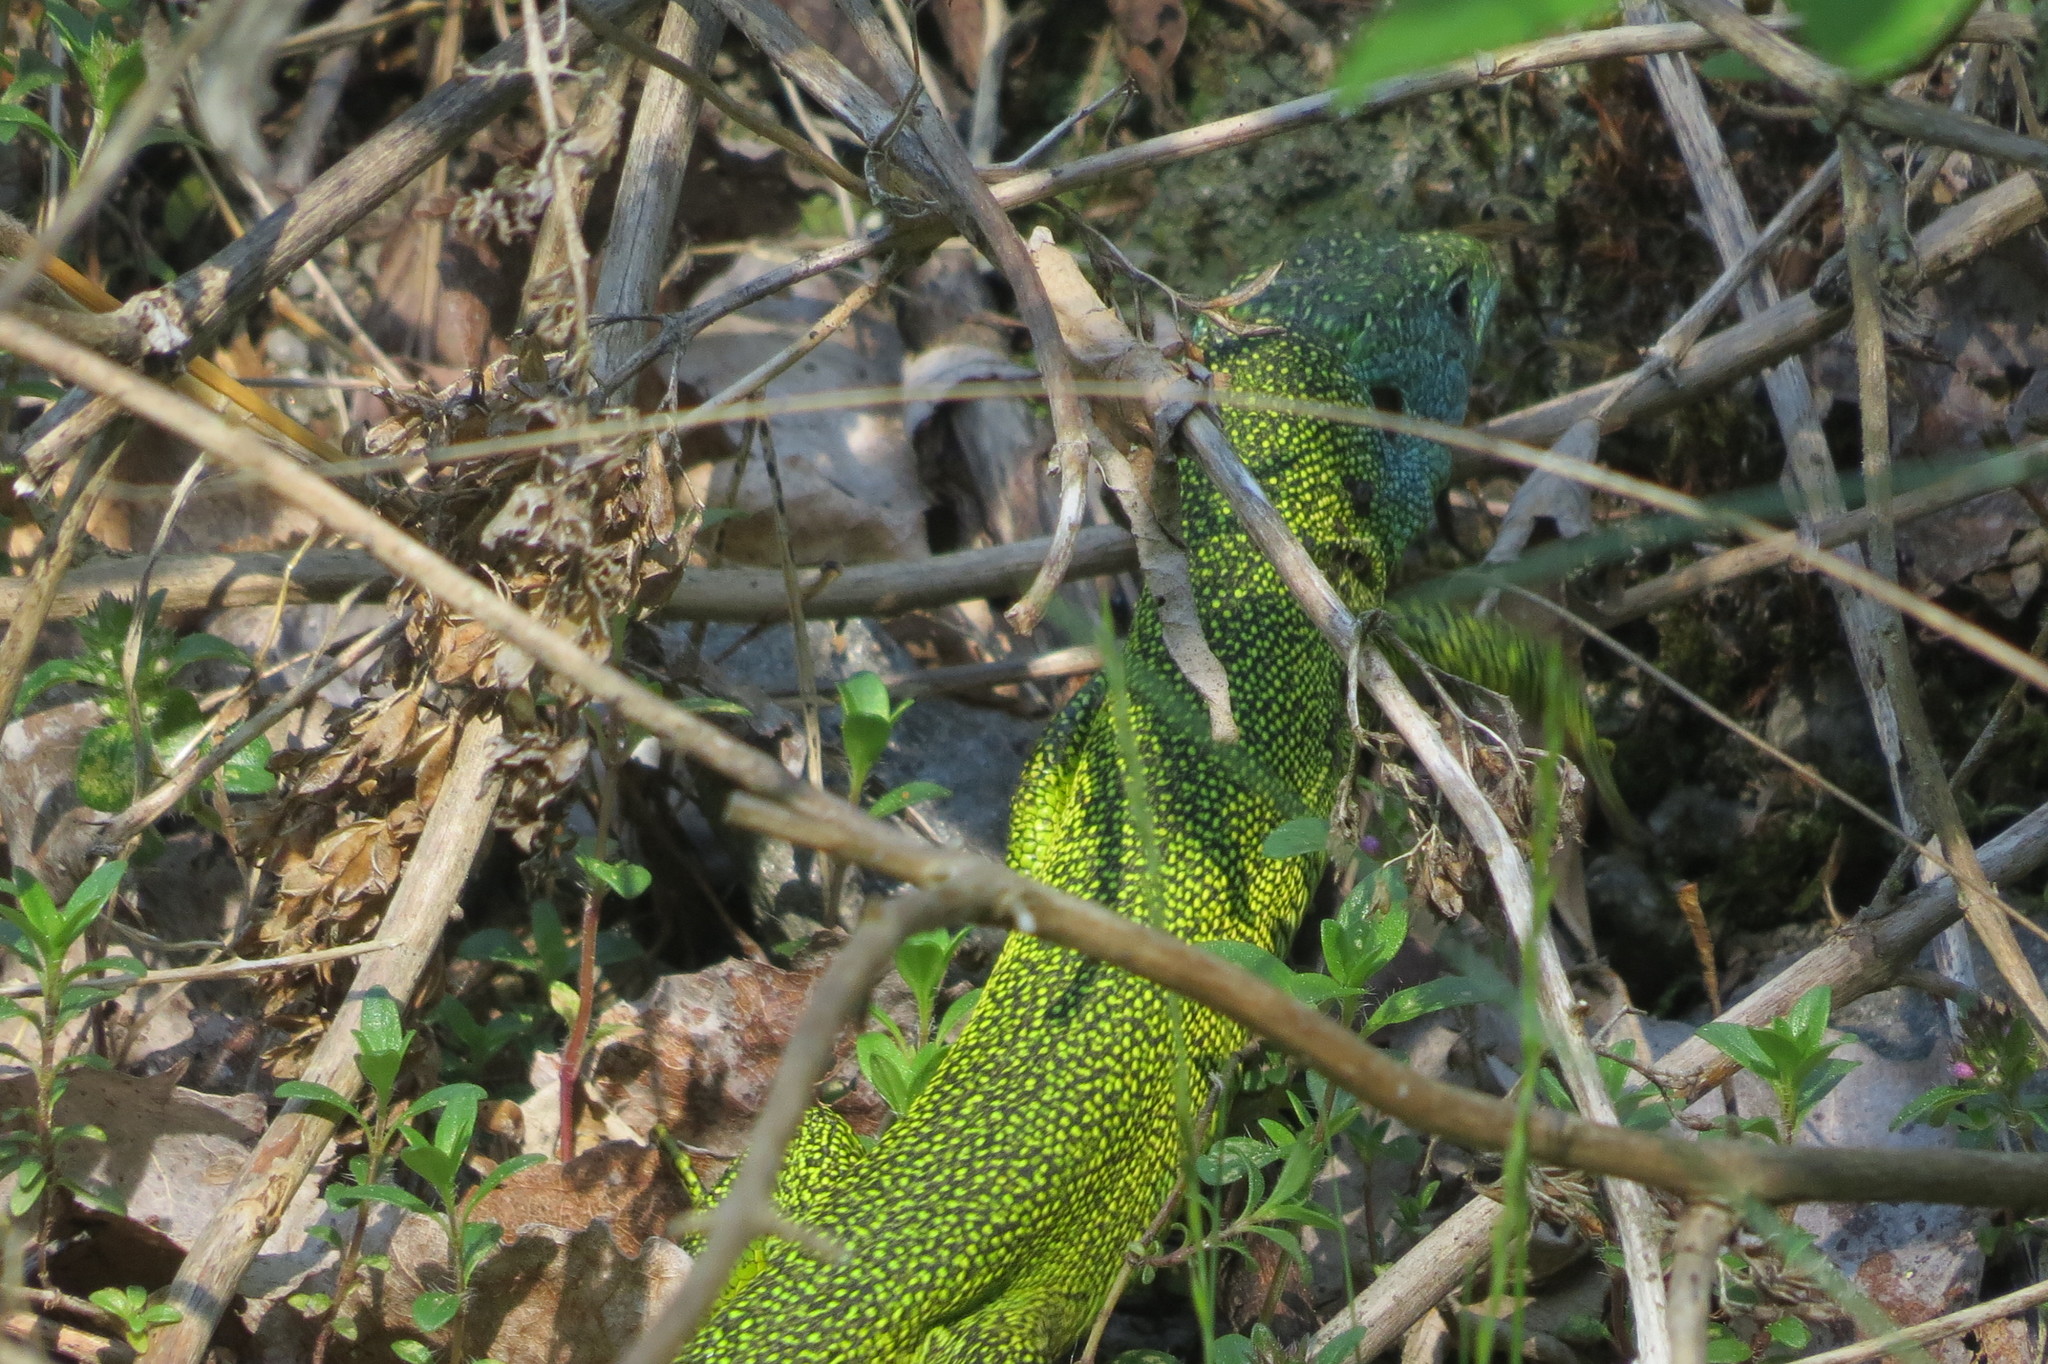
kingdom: Animalia
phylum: Chordata
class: Squamata
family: Lacertidae
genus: Lacerta
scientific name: Lacerta bilineata
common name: Western green lizard
